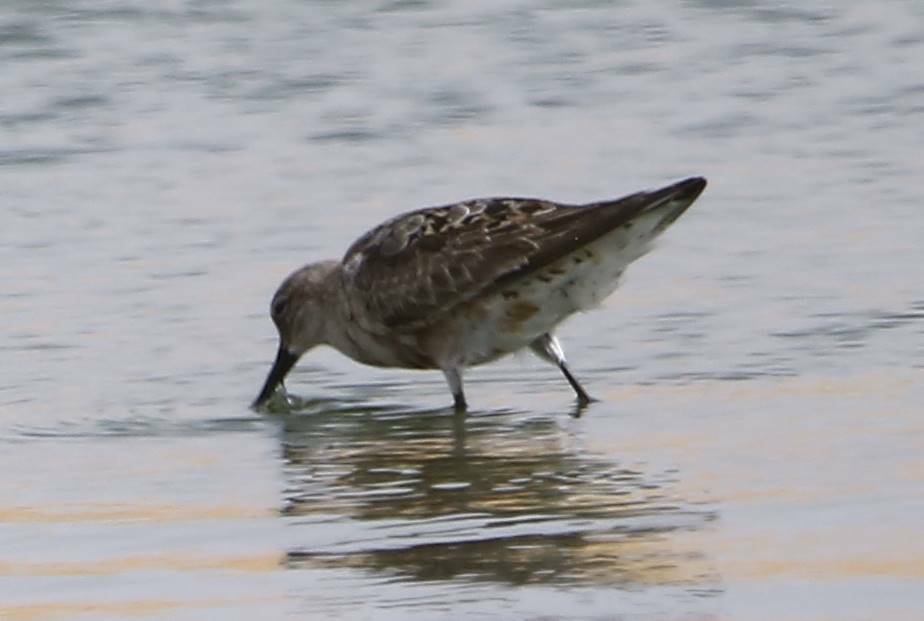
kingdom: Animalia
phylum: Chordata
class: Aves
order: Charadriiformes
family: Scolopacidae
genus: Calidris
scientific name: Calidris ferruginea
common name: Curlew sandpiper
